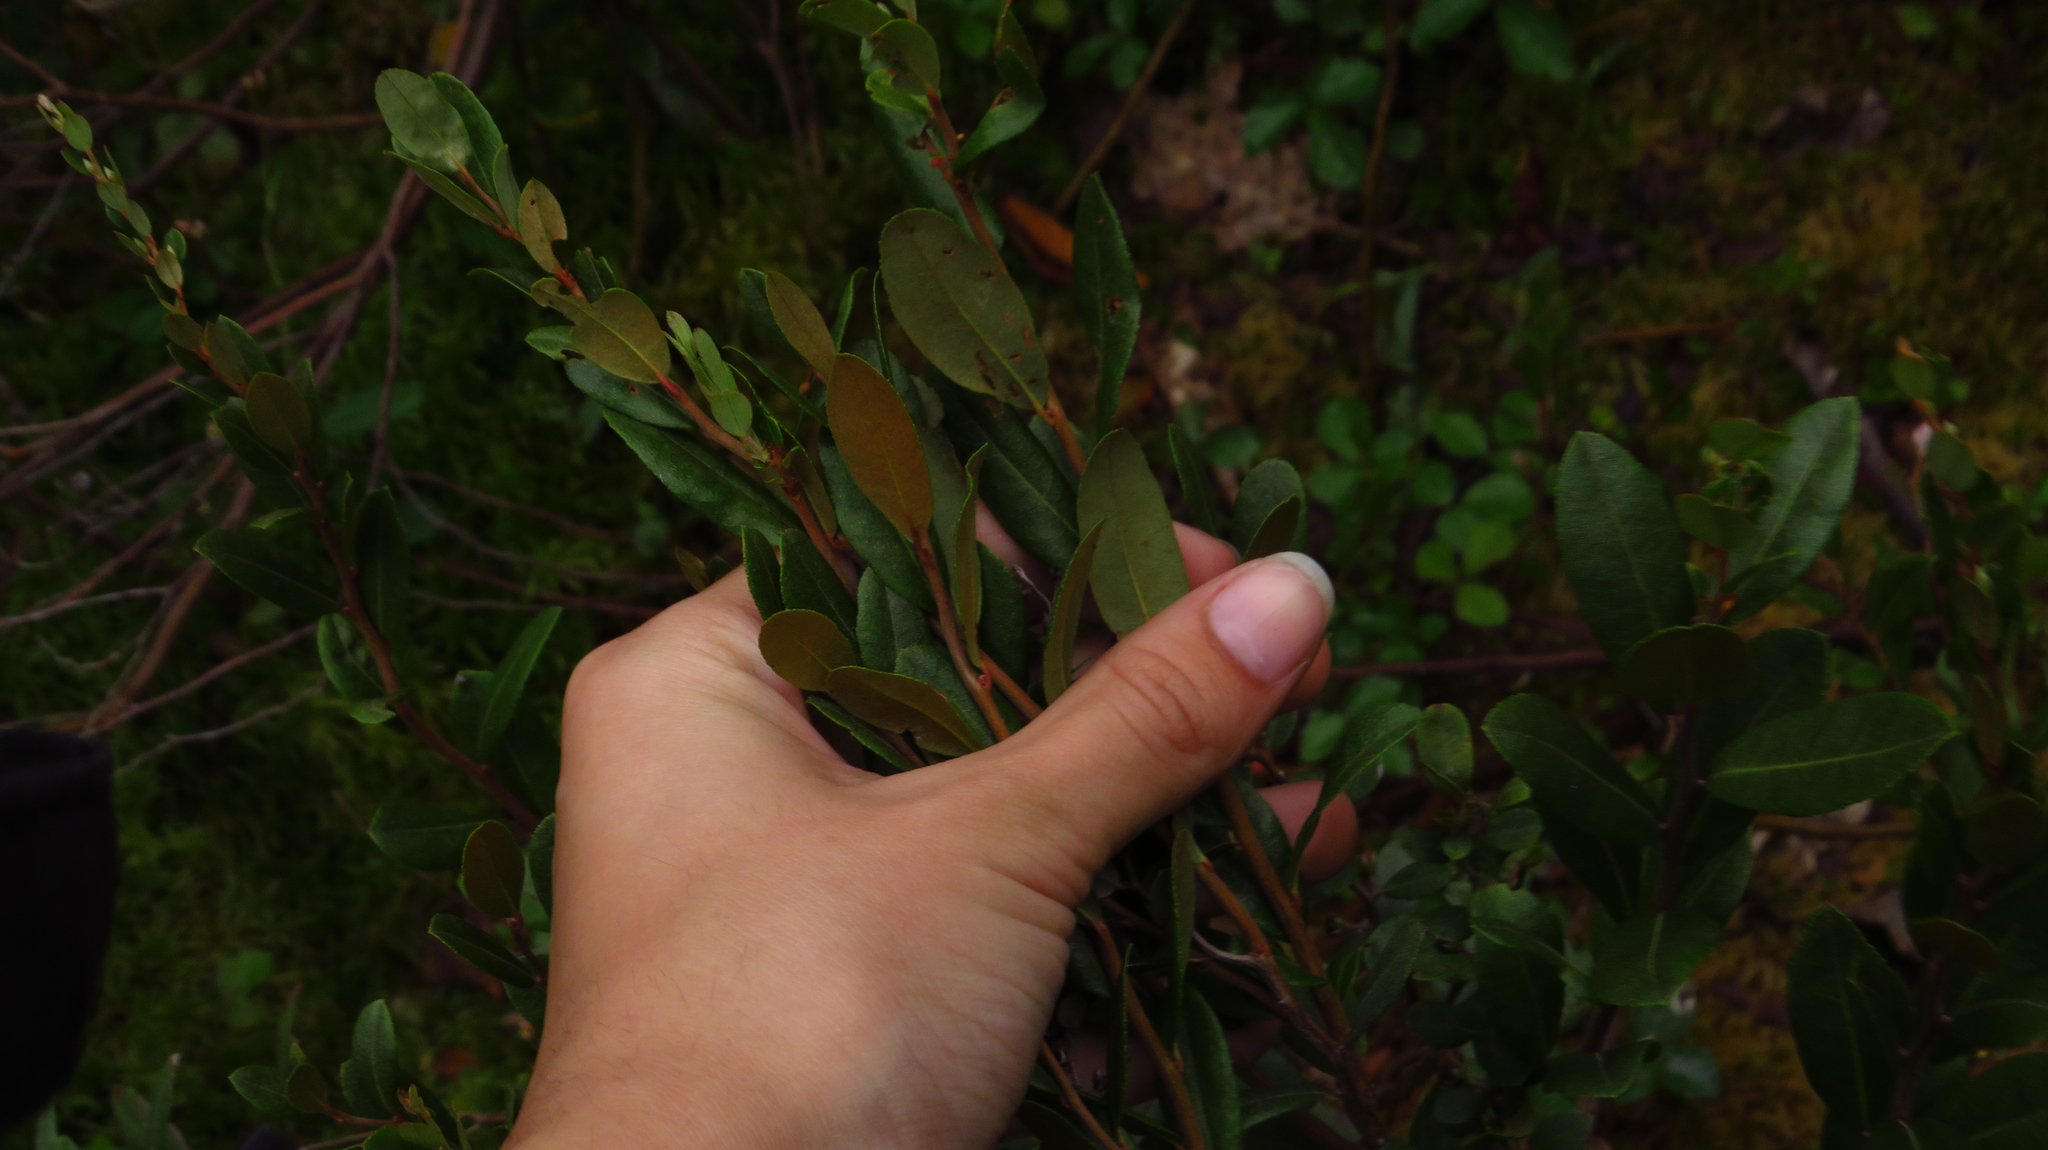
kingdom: Plantae
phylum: Tracheophyta
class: Magnoliopsida
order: Ericales
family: Ericaceae
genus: Chamaedaphne
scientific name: Chamaedaphne calyculata
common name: Leatherleaf
